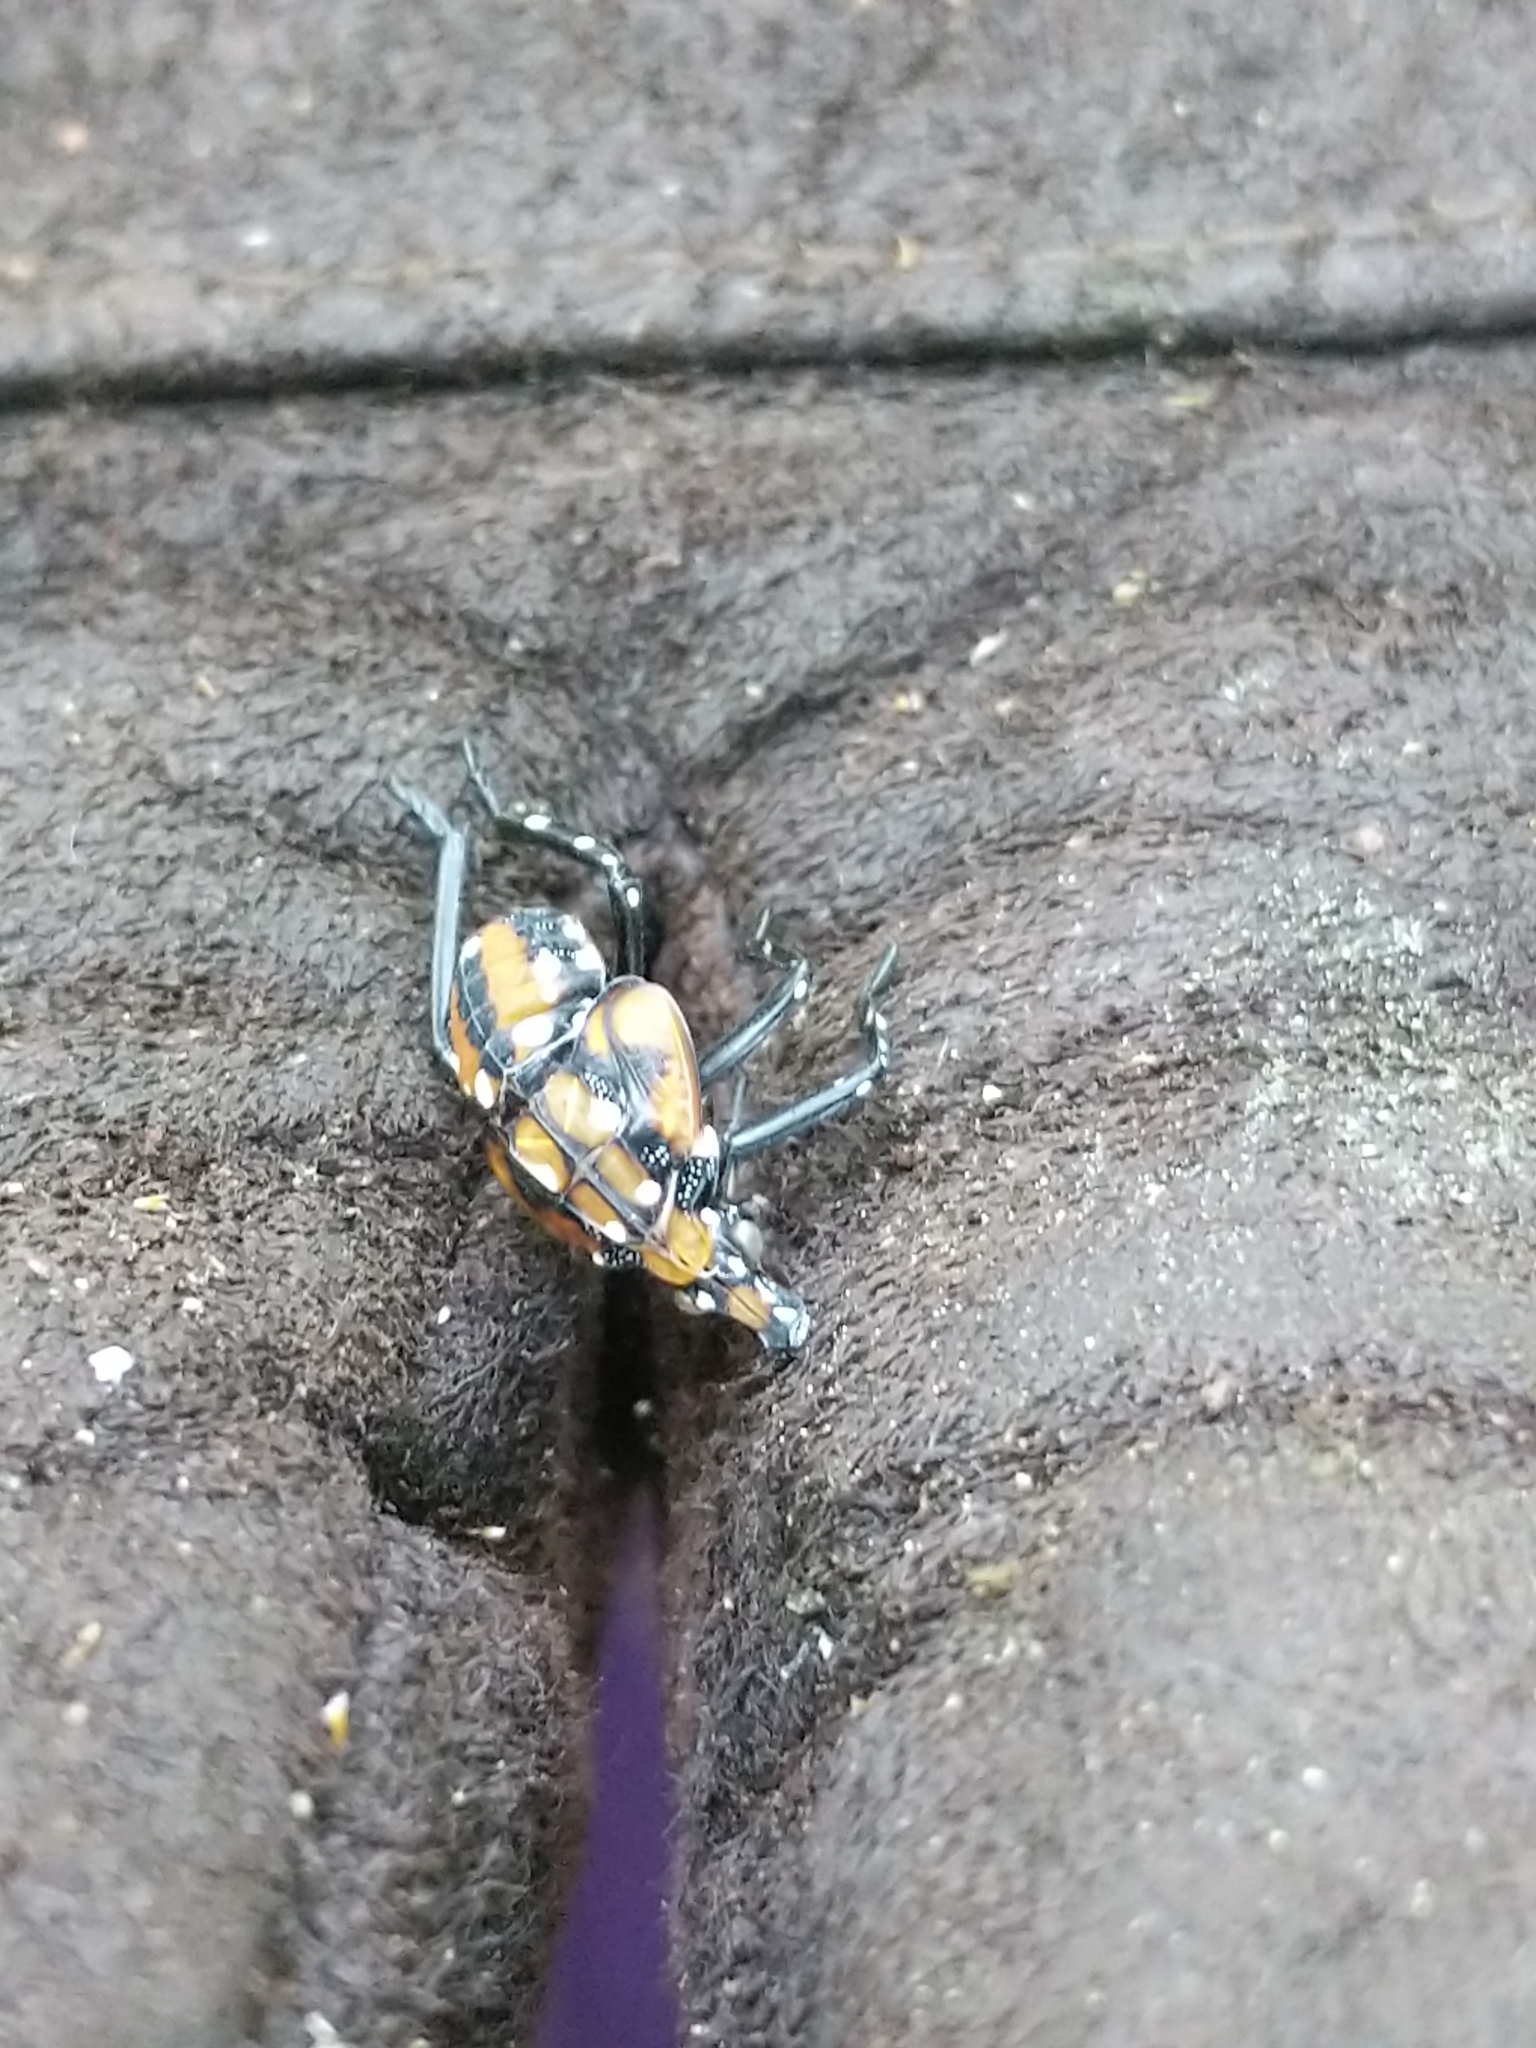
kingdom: Animalia
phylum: Arthropoda
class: Insecta
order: Hemiptera
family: Fulgoridae
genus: Lycorma
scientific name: Lycorma delicatula
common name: Spotted lanternfly
